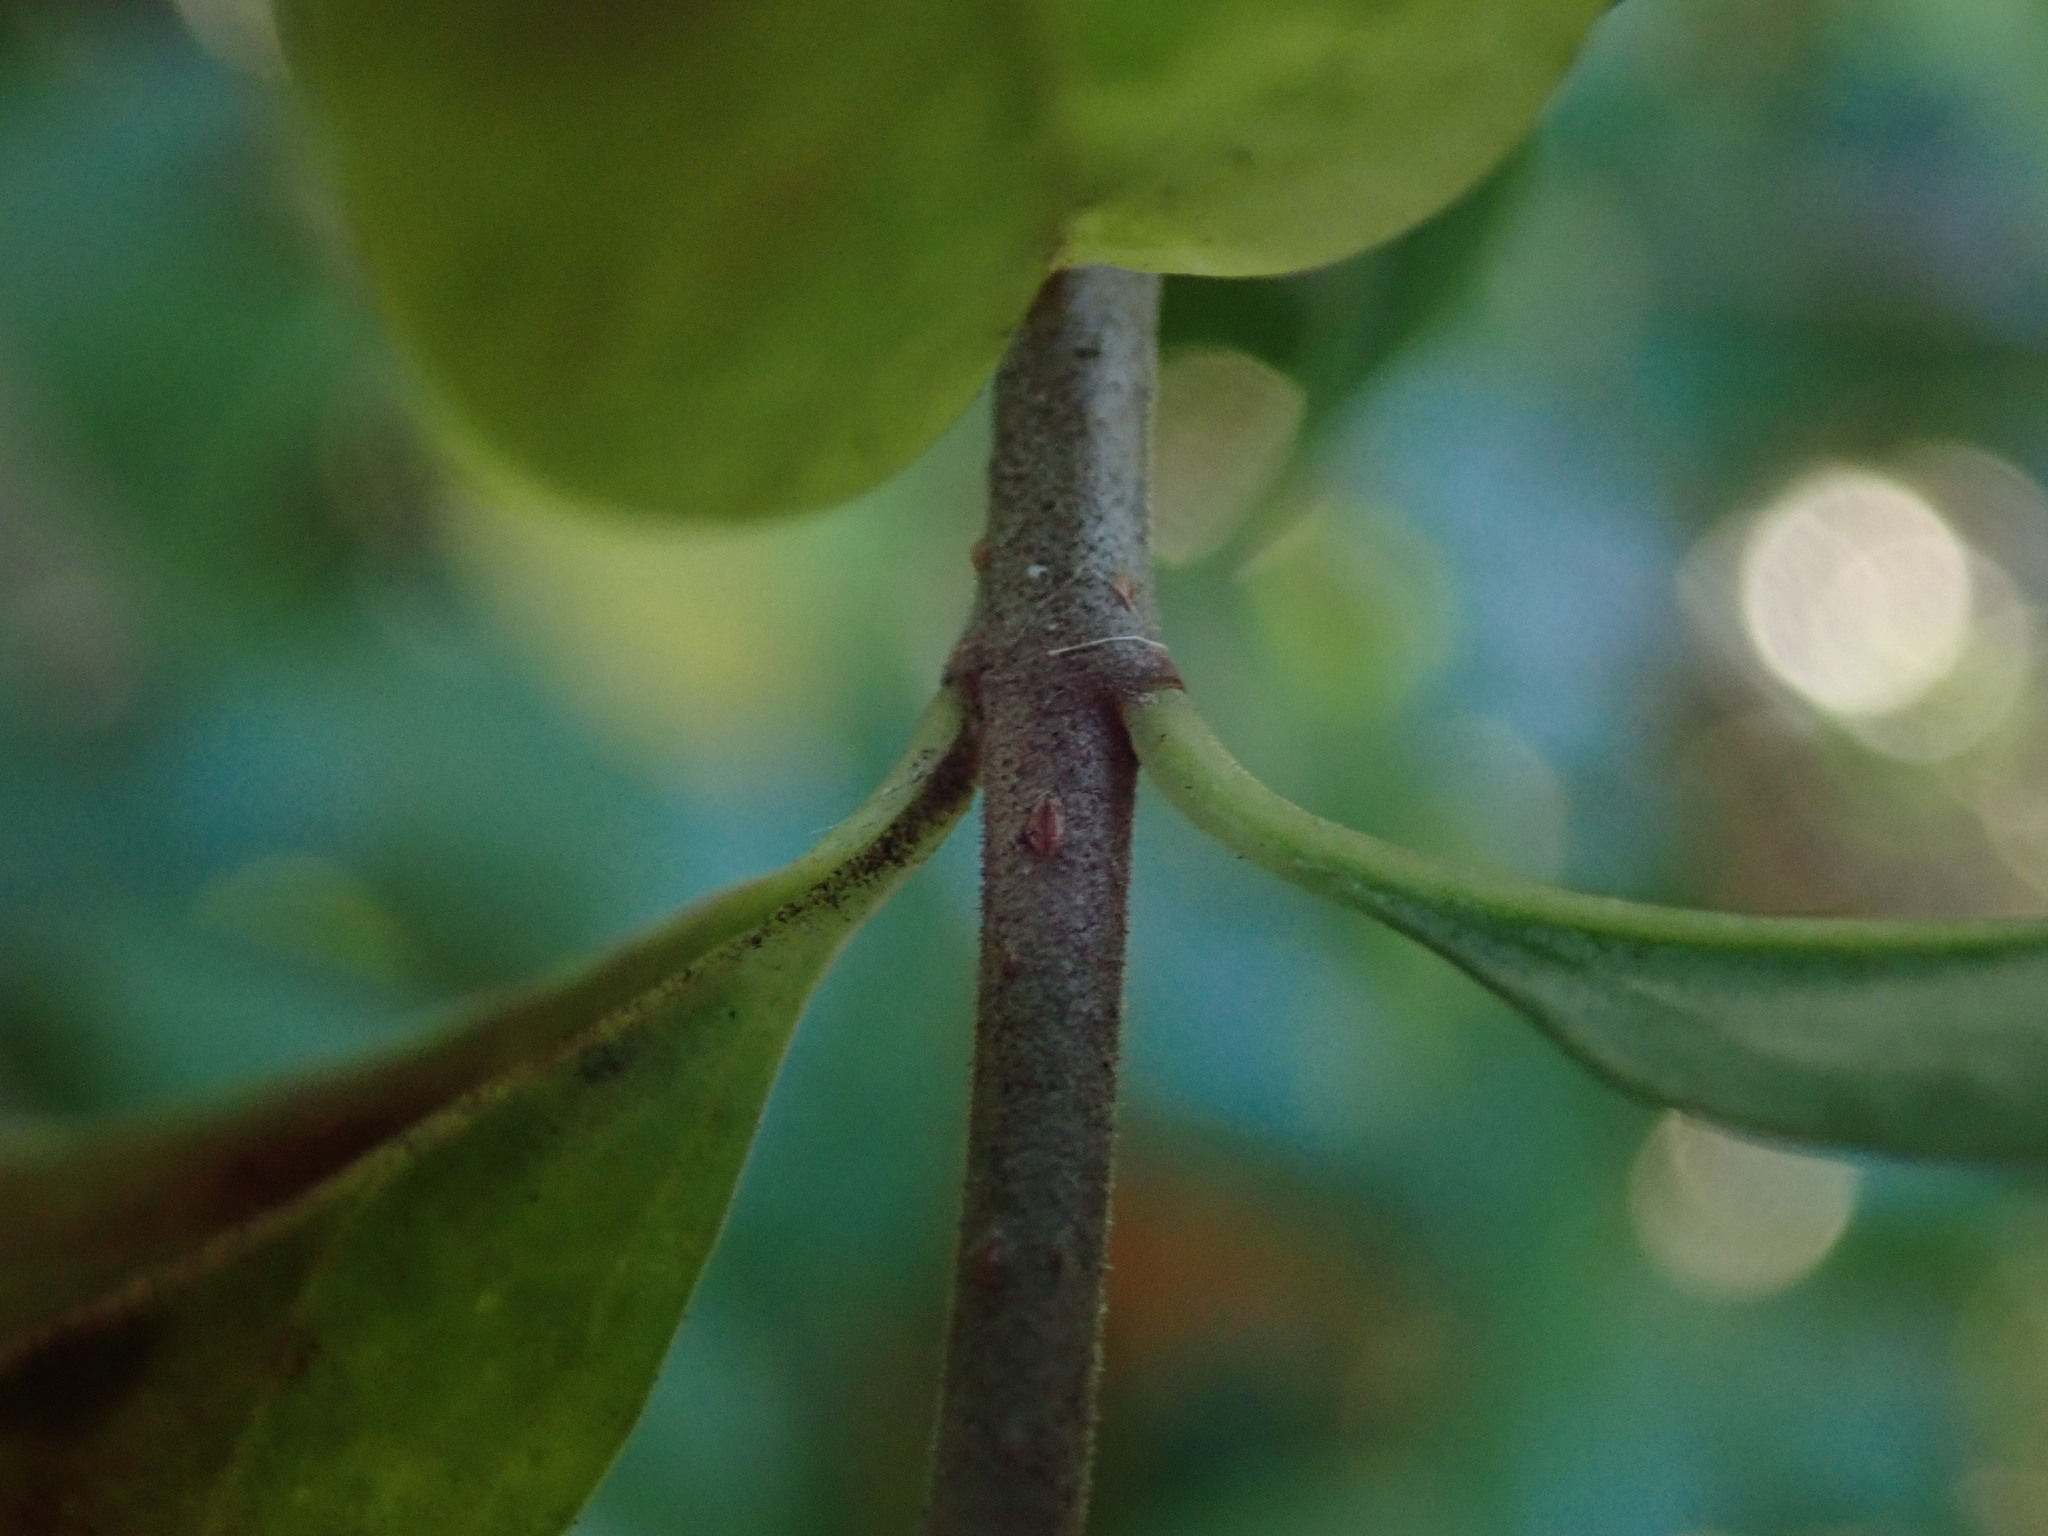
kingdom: Plantae
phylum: Tracheophyta
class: Magnoliopsida
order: Lamiales
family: Oleaceae
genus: Ligustrum
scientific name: Ligustrum vulgare
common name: Wild privet
